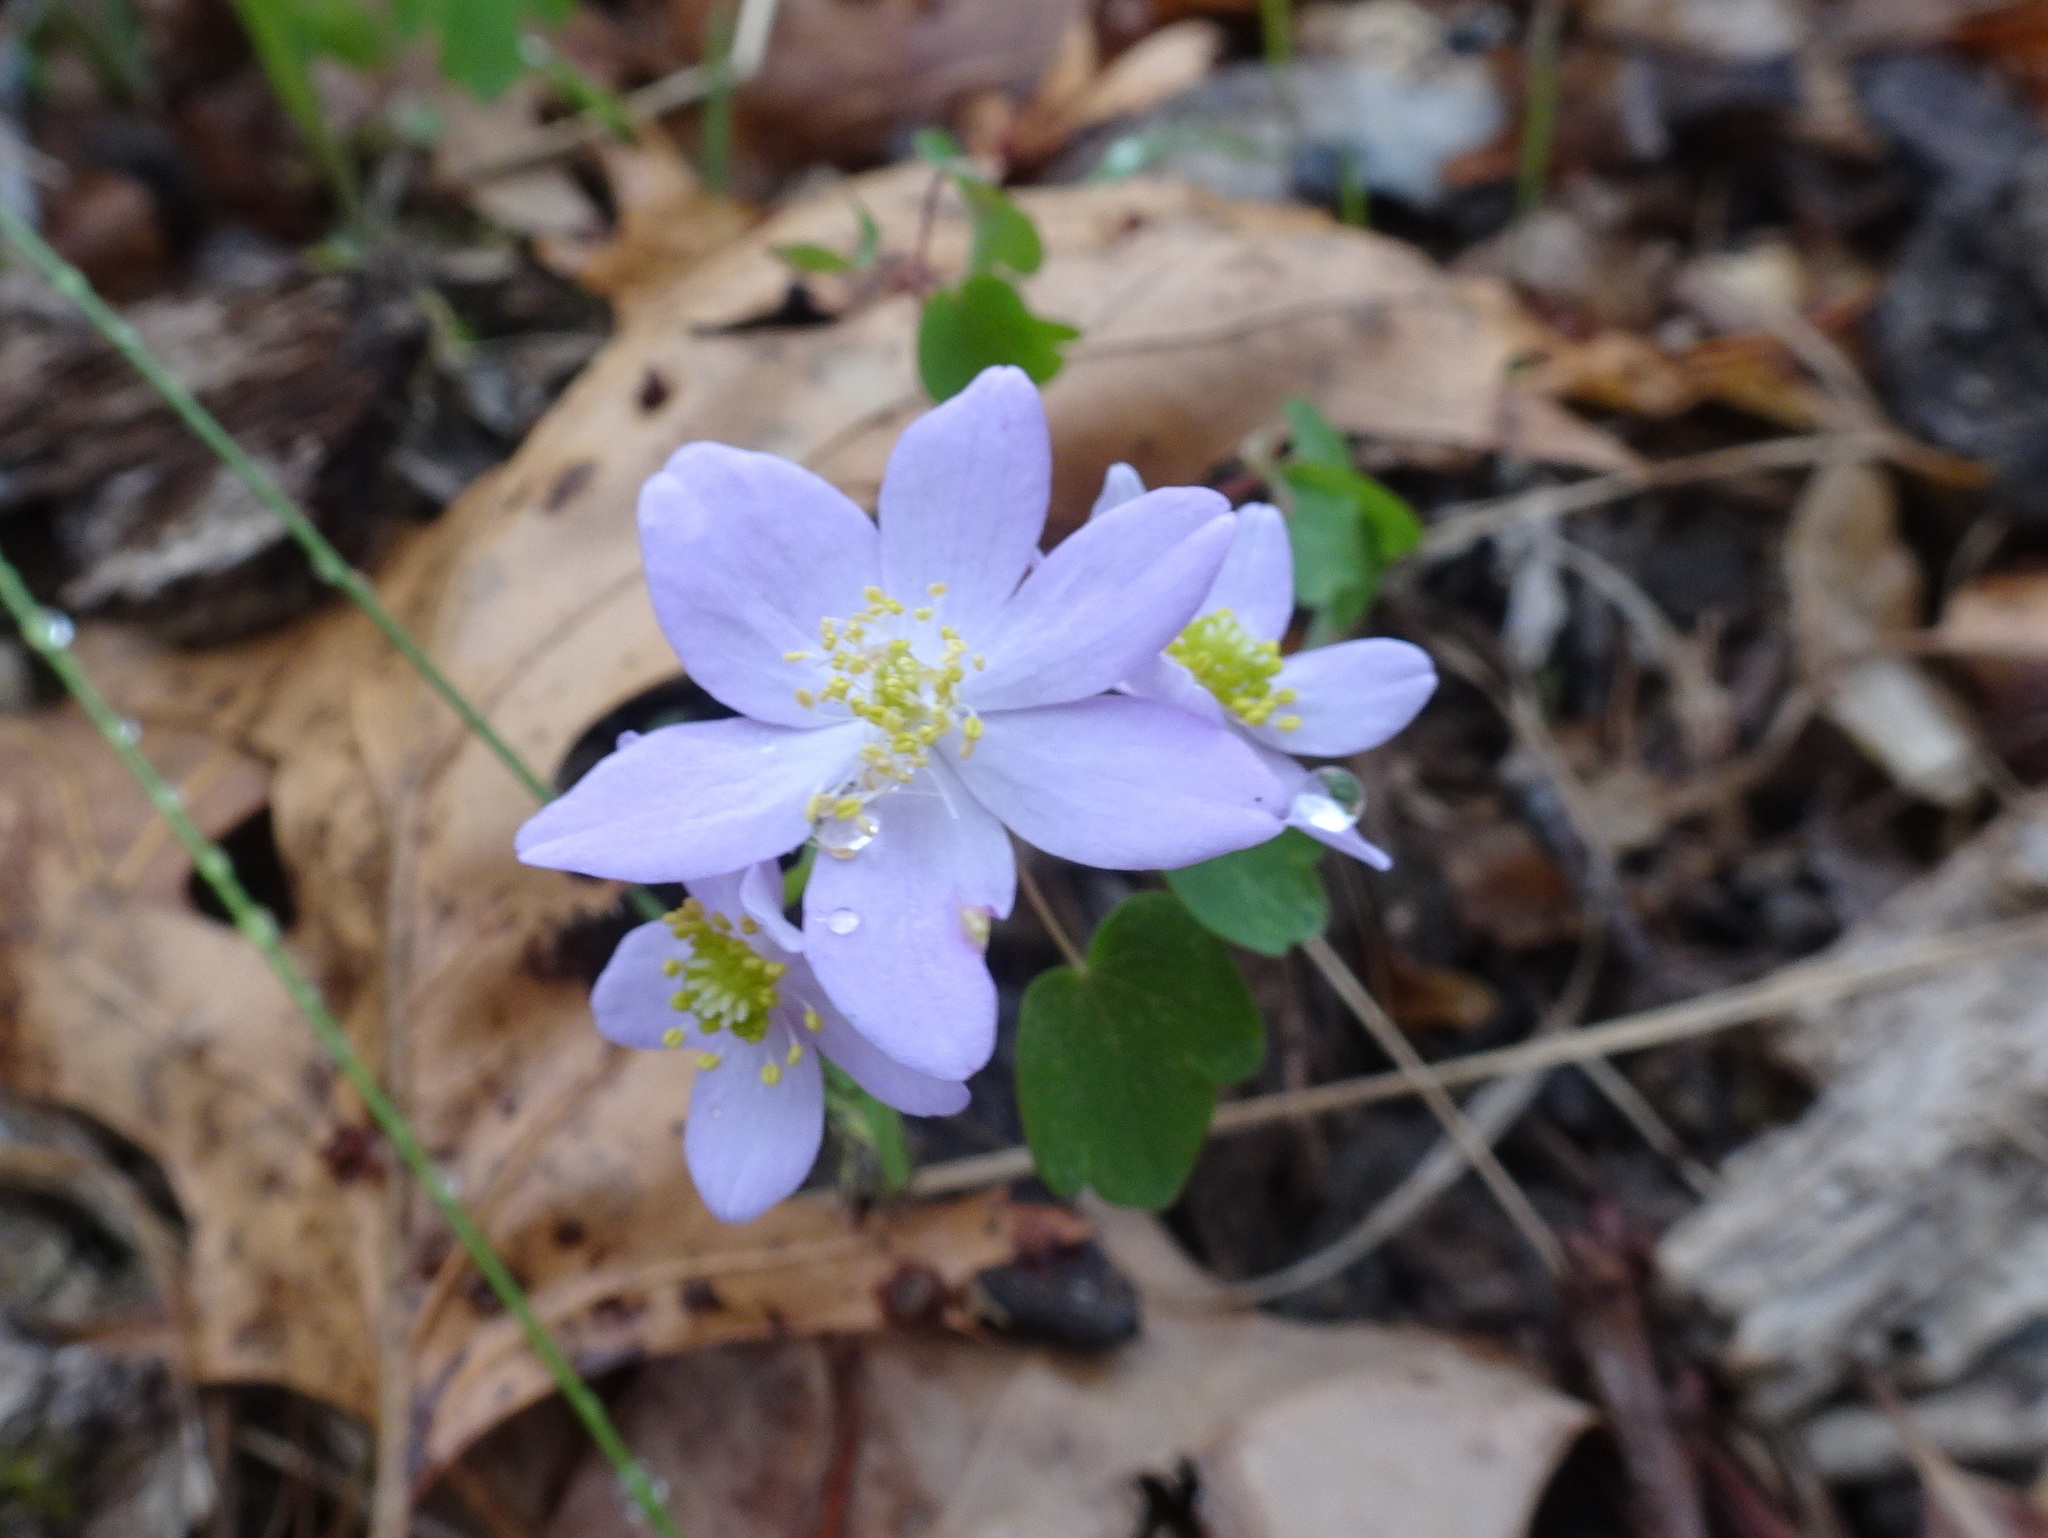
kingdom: Plantae
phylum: Tracheophyta
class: Magnoliopsida
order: Ranunculales
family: Ranunculaceae
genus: Thalictrum
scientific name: Thalictrum thalictroides
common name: Rue-anemone
